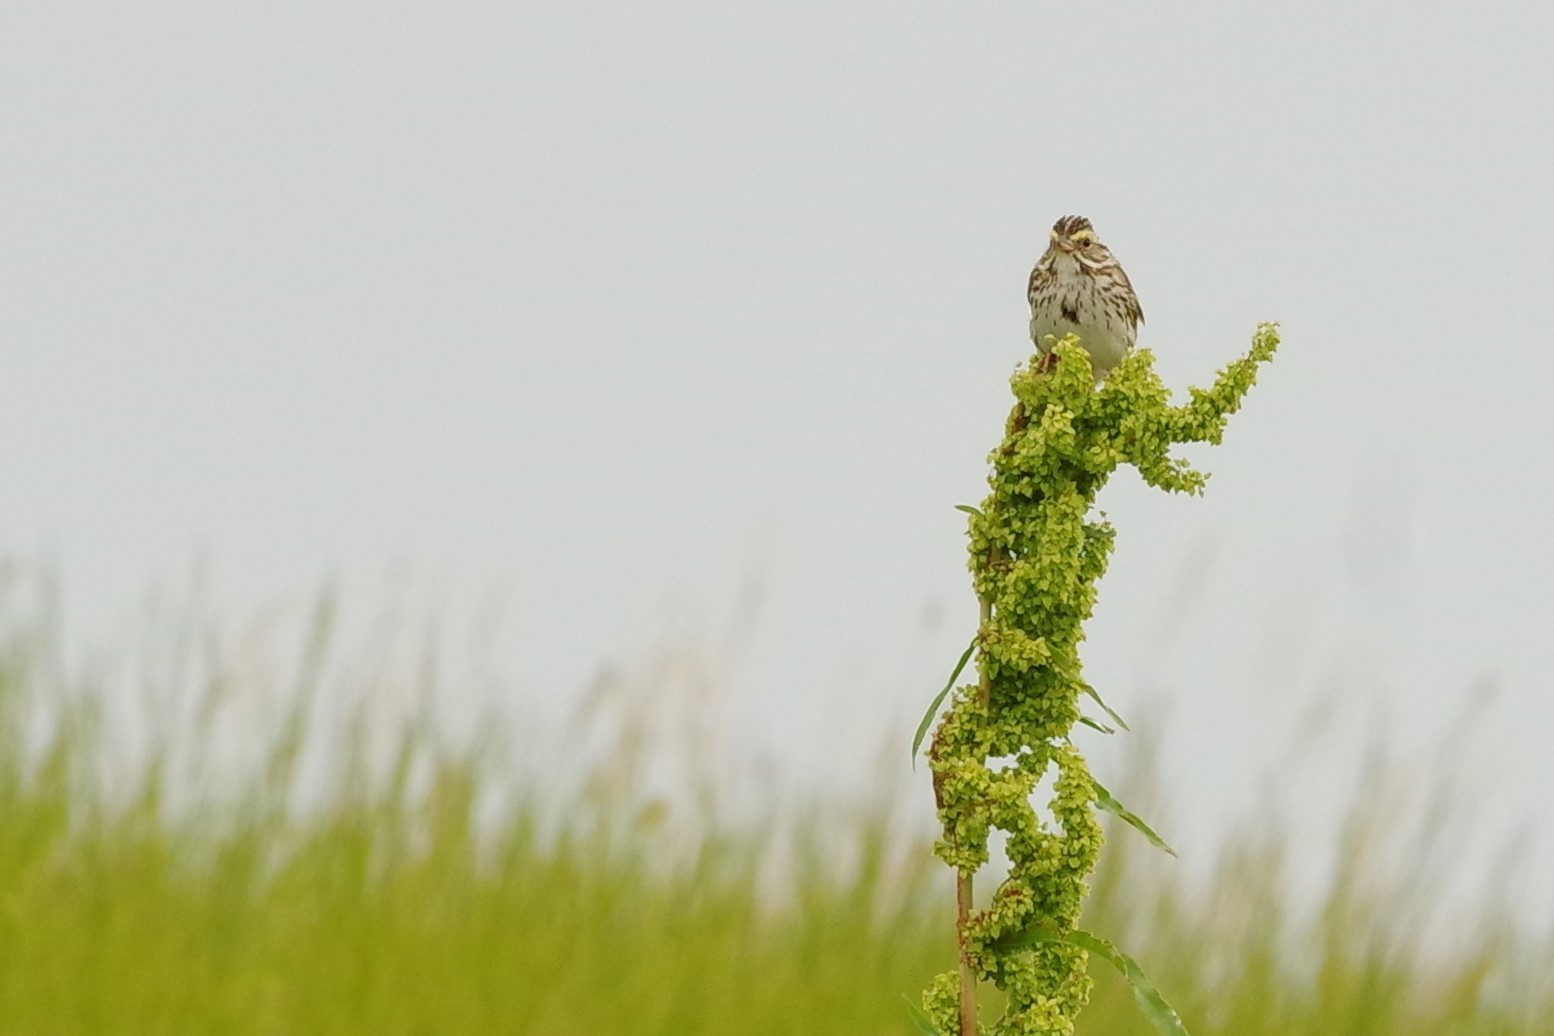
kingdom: Animalia
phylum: Chordata
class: Aves
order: Passeriformes
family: Passerellidae
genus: Passerculus
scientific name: Passerculus sandwichensis
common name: Savannah sparrow
